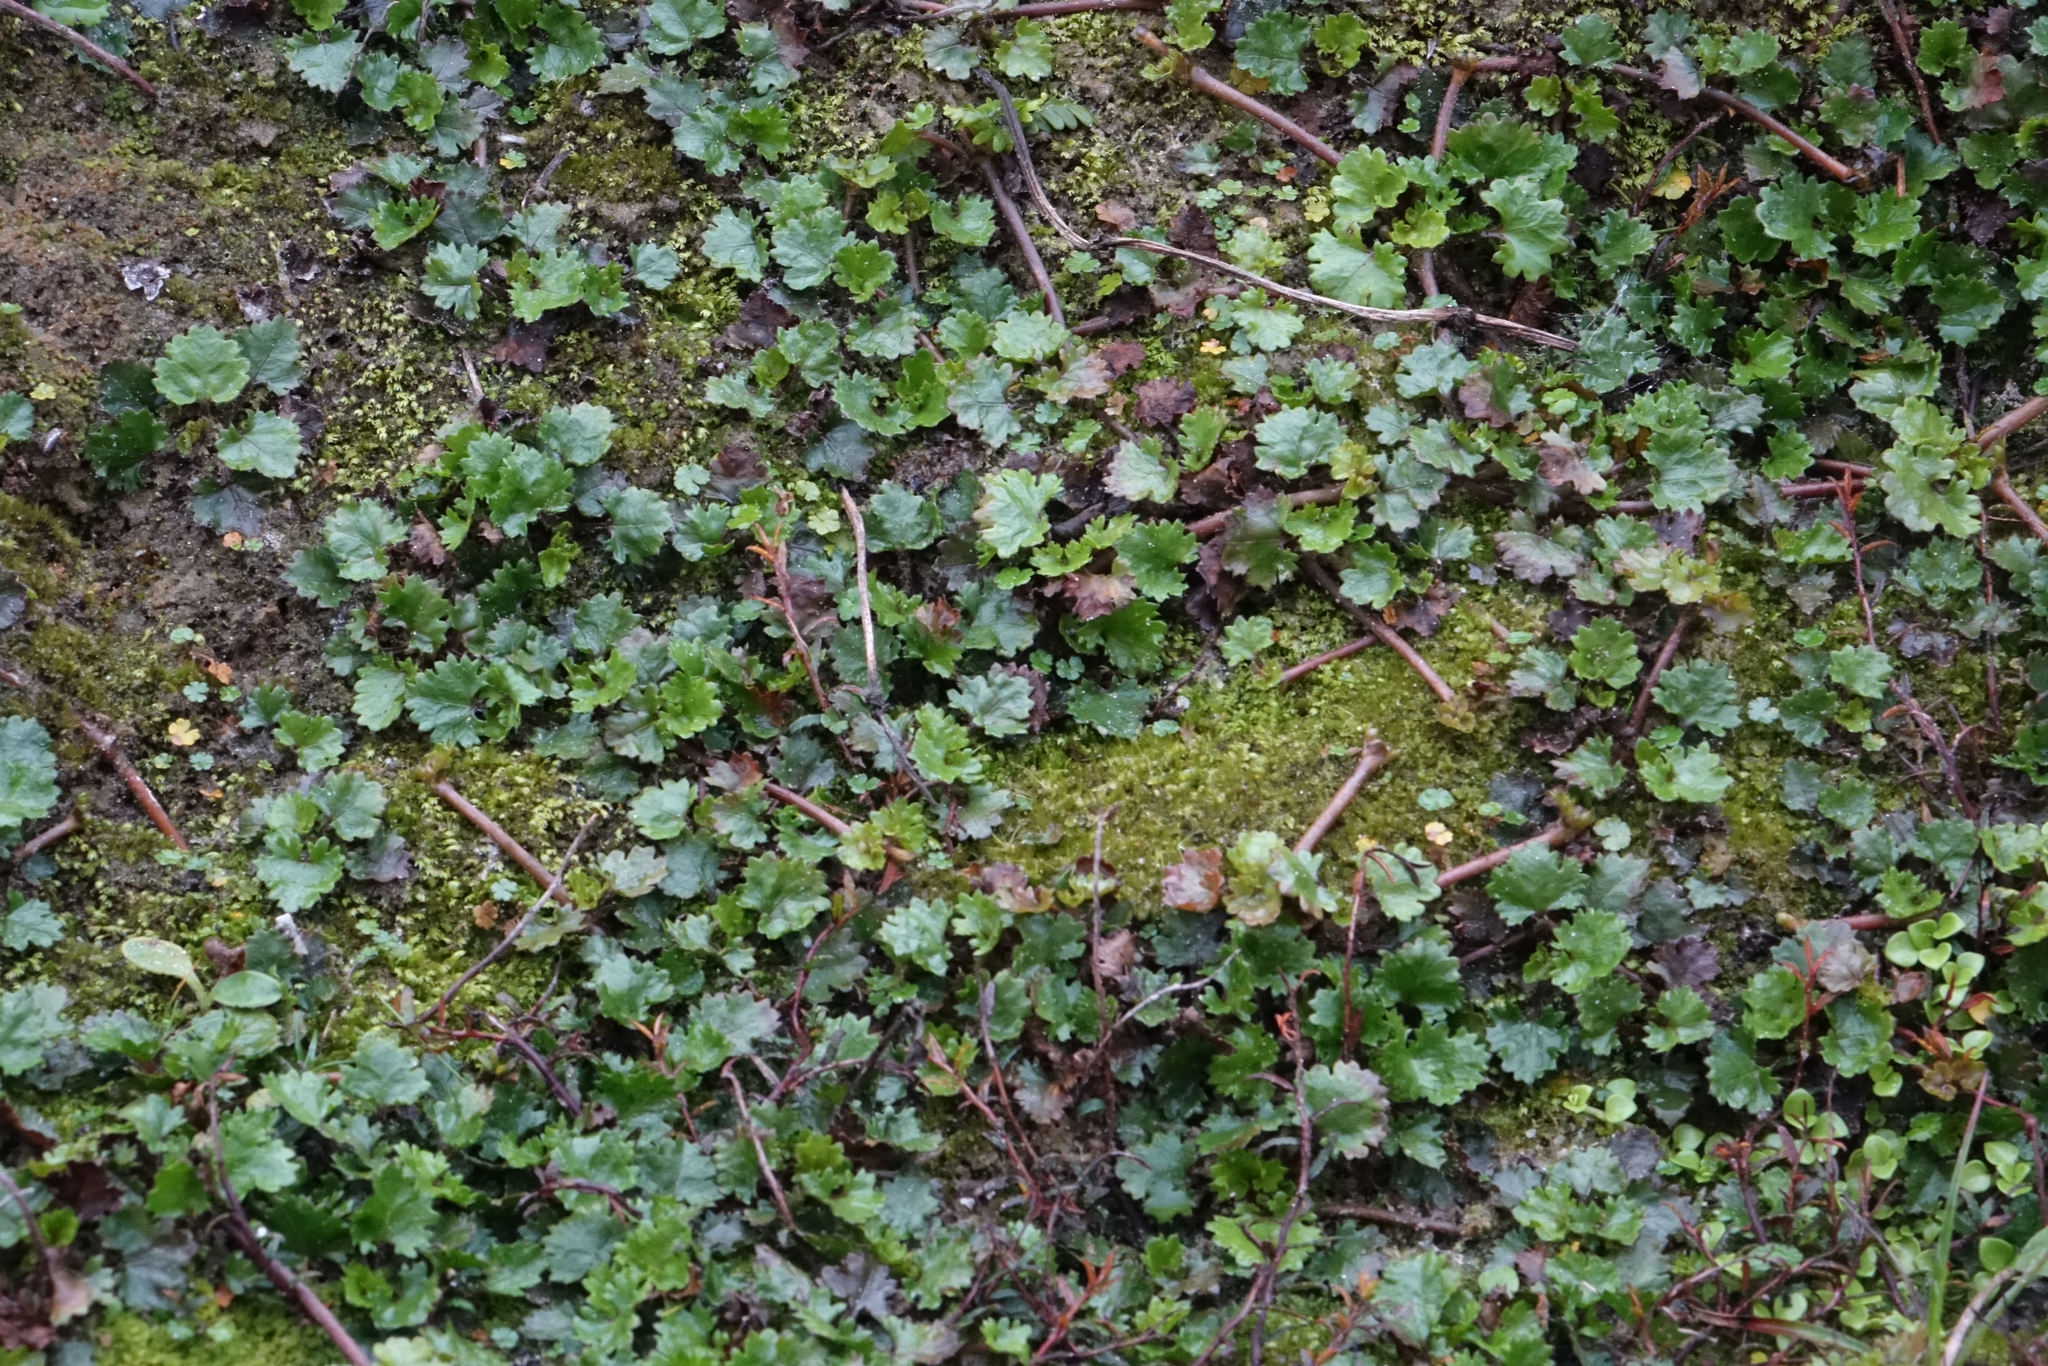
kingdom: Plantae
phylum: Tracheophyta
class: Magnoliopsida
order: Gunnerales
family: Gunneraceae
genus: Gunnera
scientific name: Gunnera monoica
